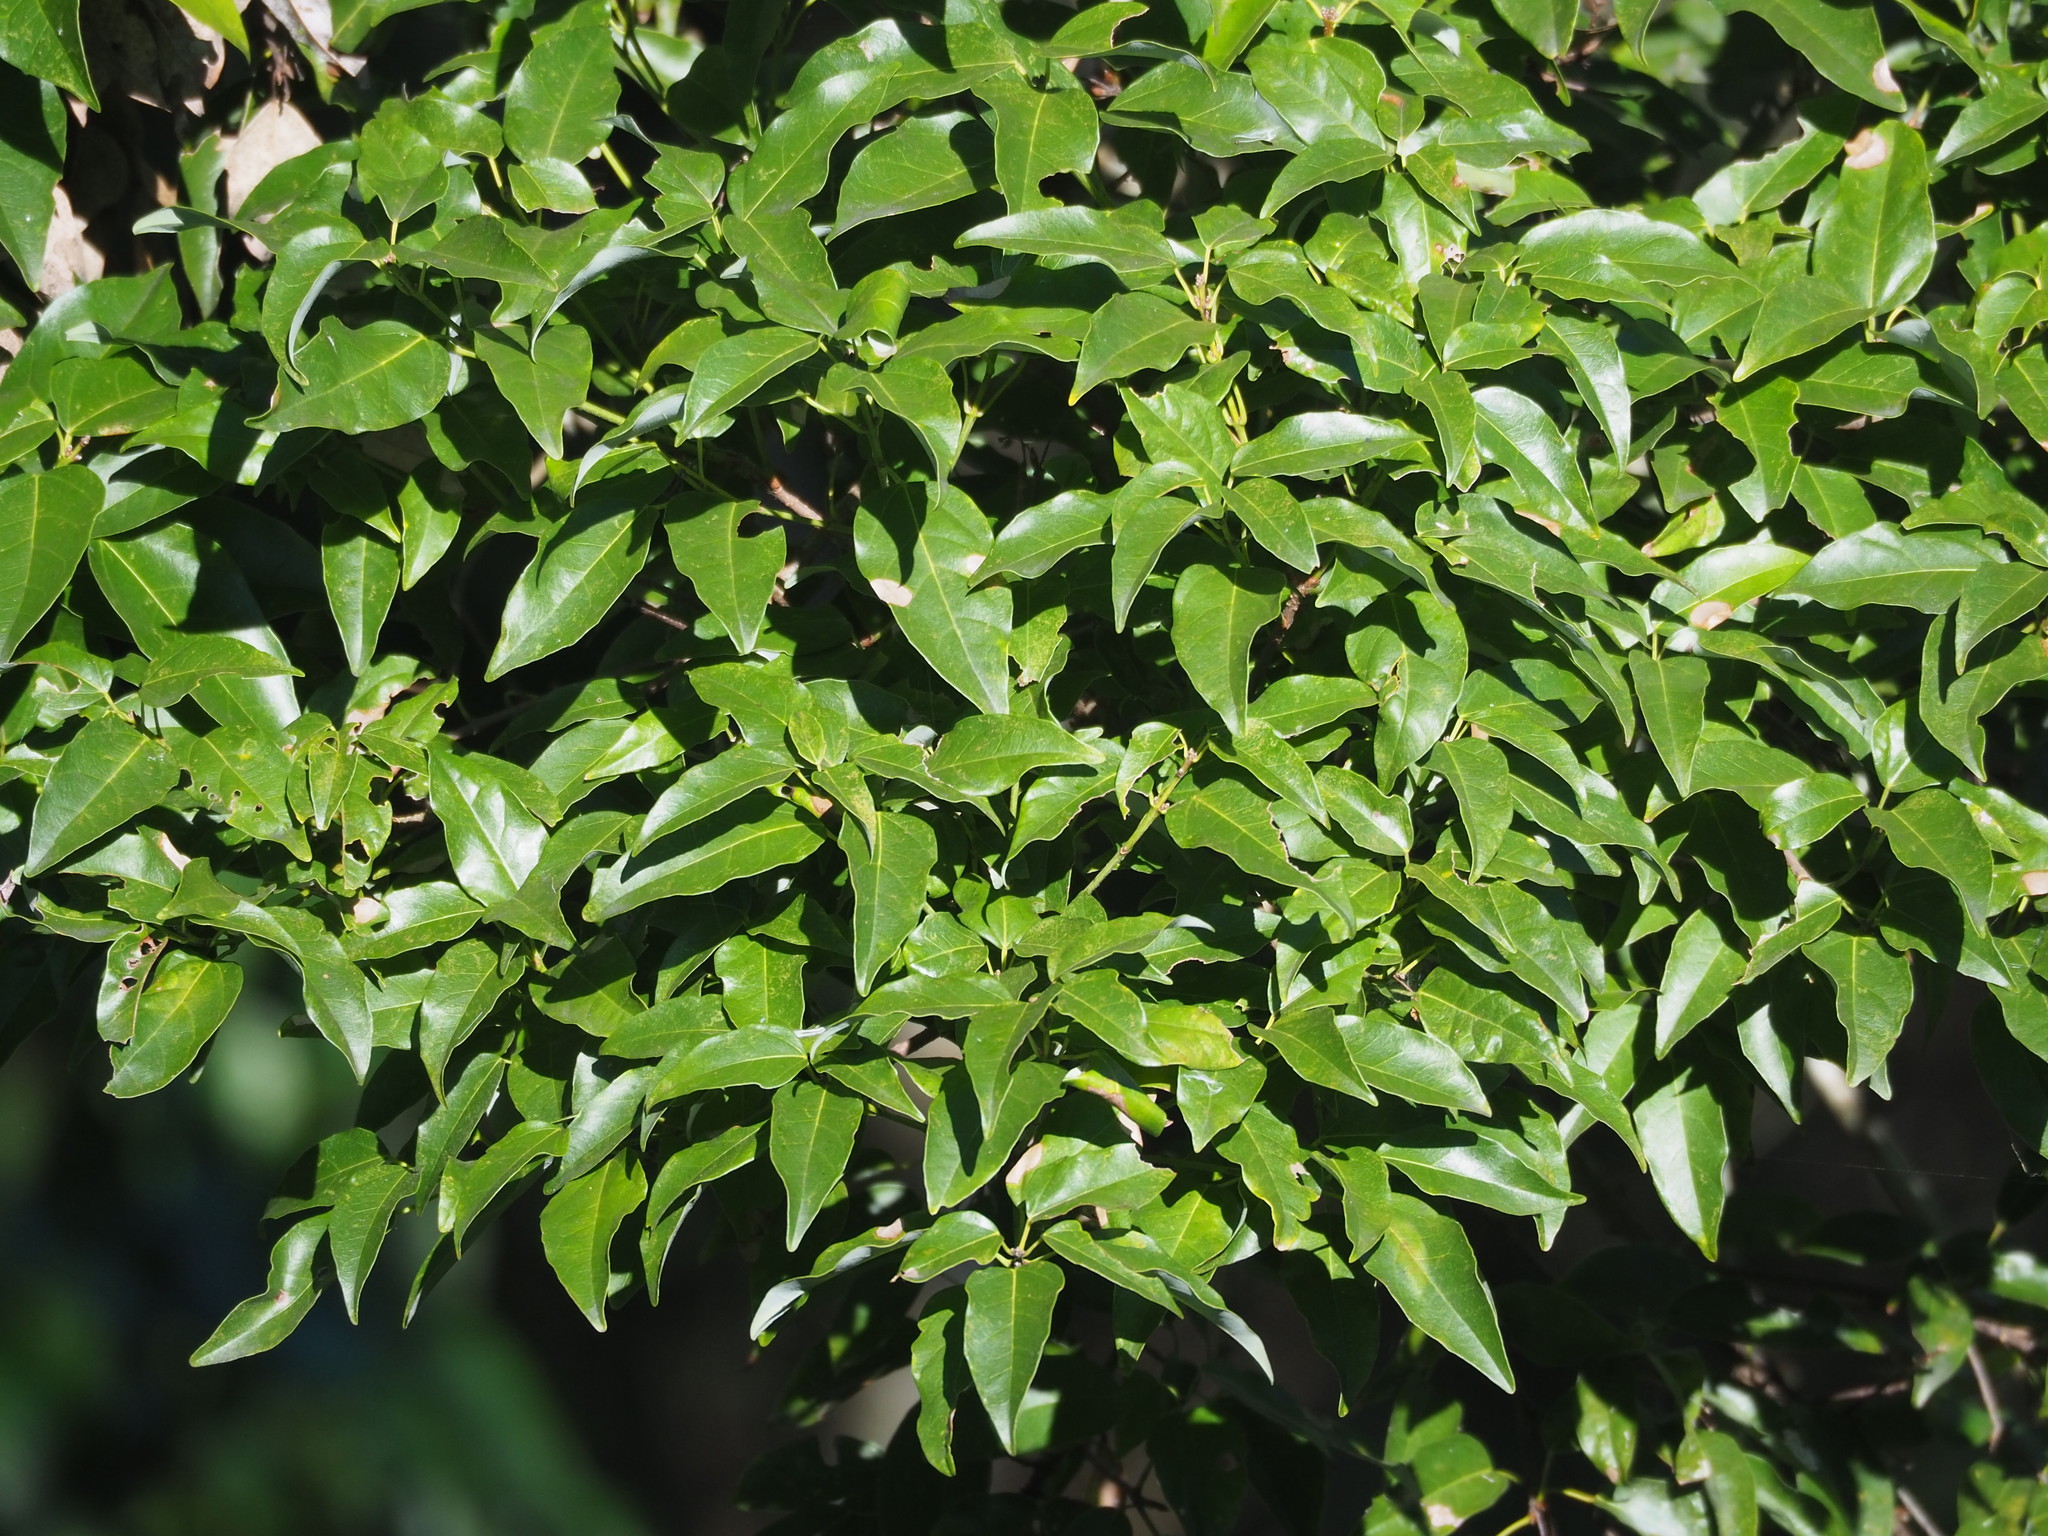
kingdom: Plantae
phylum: Tracheophyta
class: Magnoliopsida
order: Sapindales
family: Sapindaceae
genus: Acer
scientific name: Acer oblongum
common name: Himalayan maple
